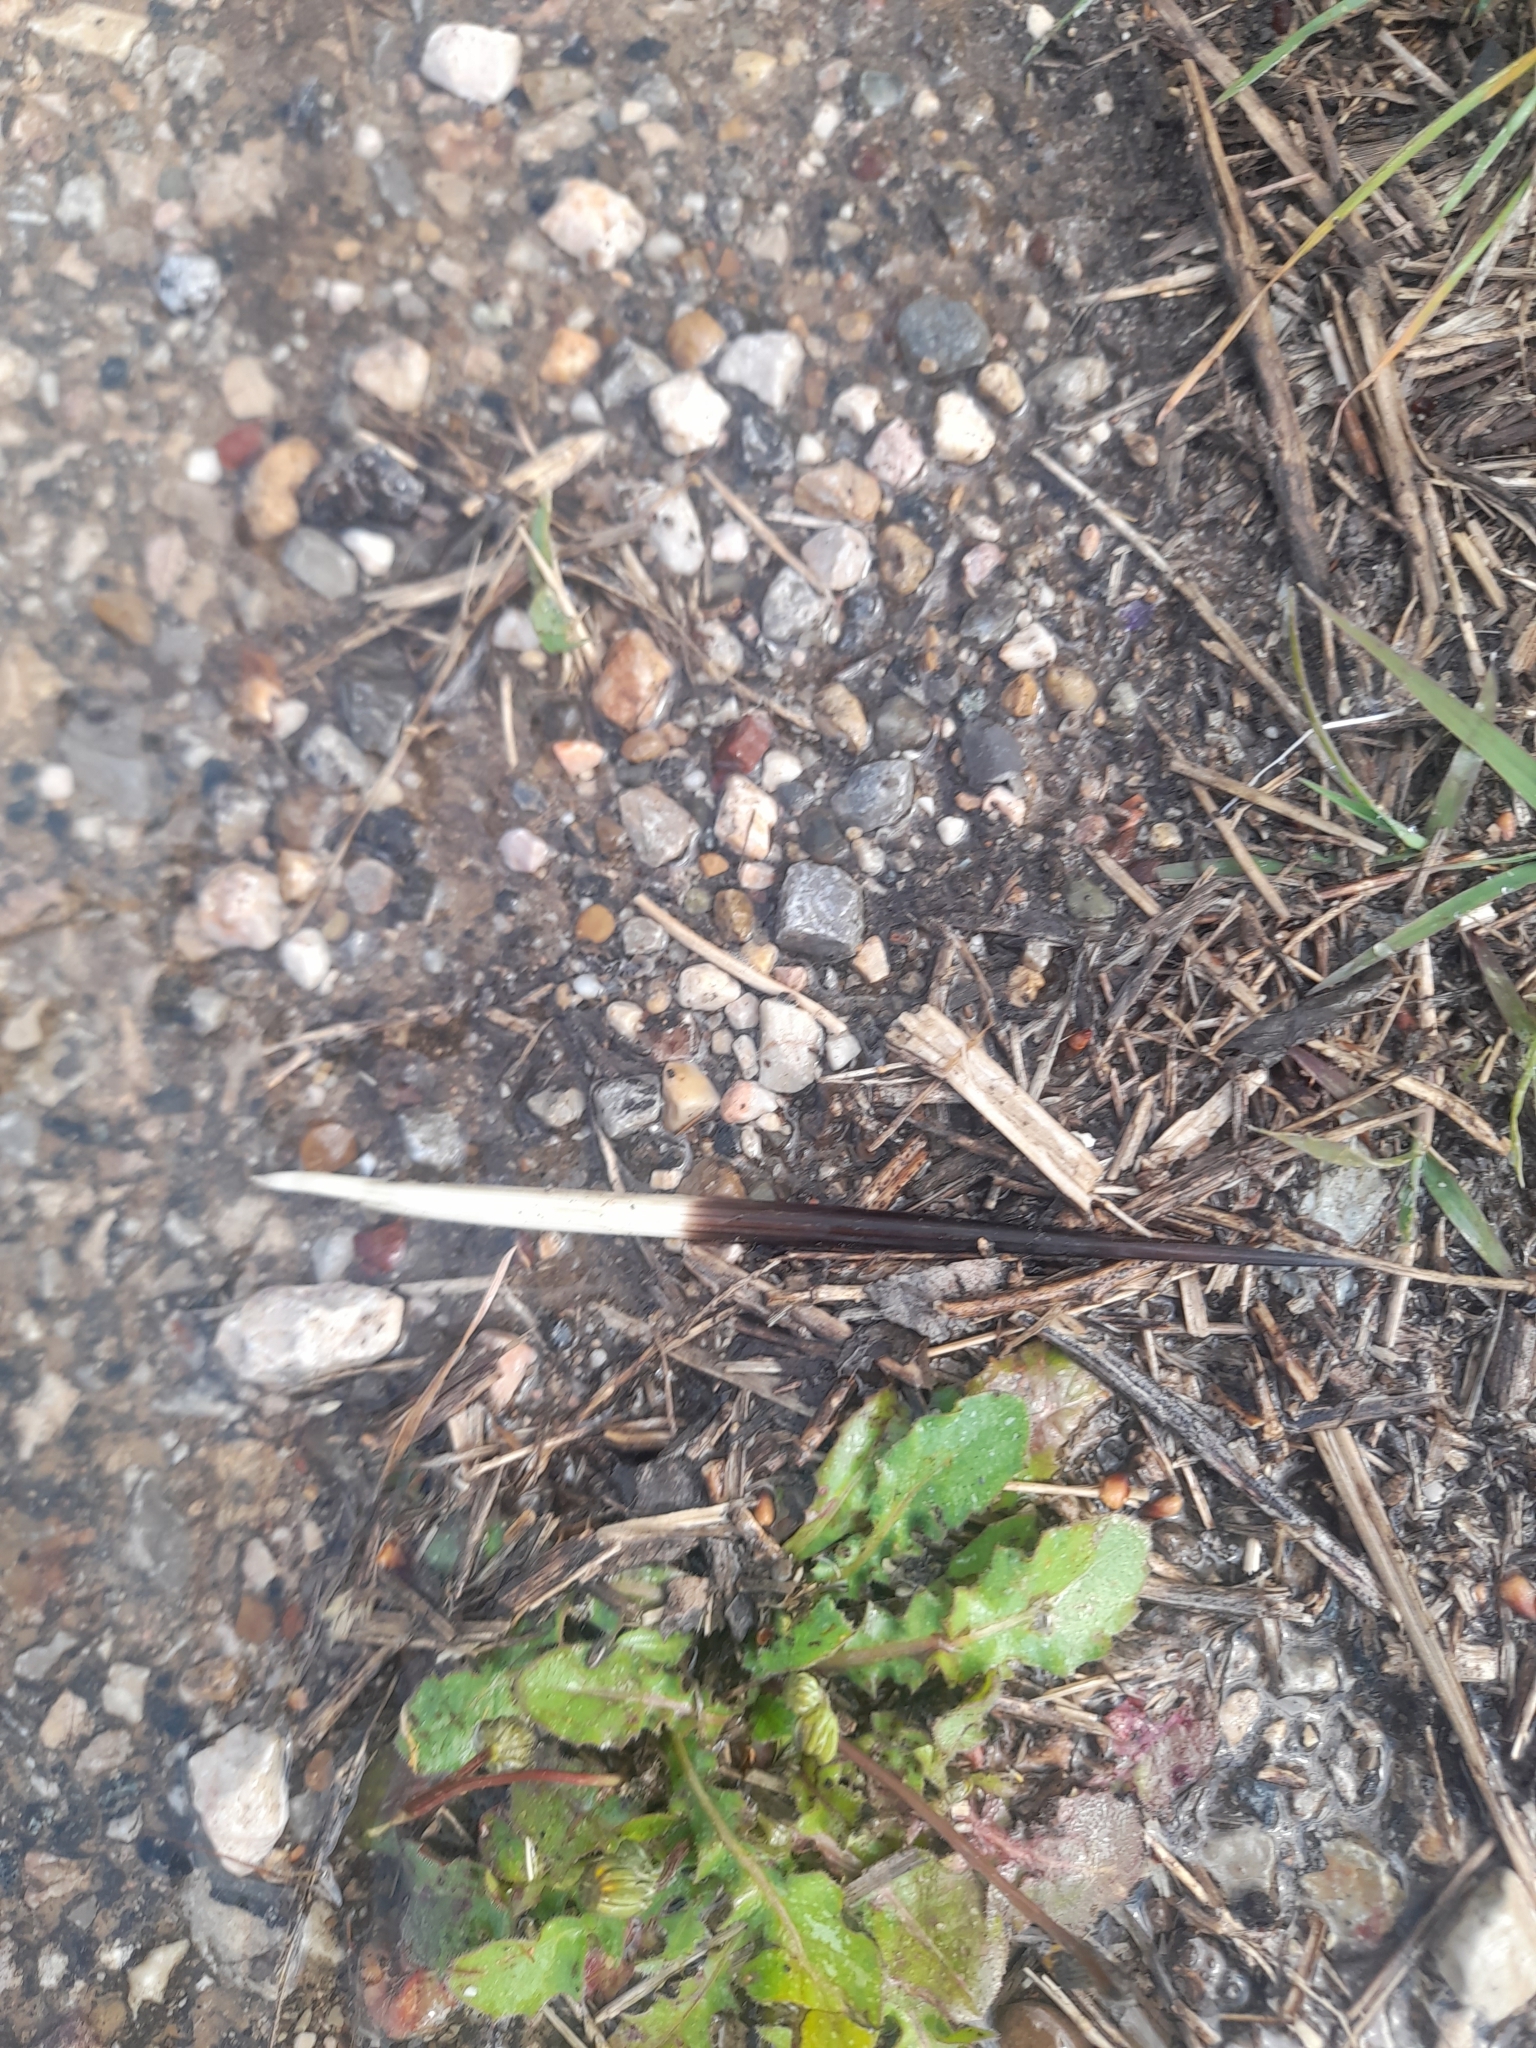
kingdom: Animalia
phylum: Chordata
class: Mammalia
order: Rodentia
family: Hystricidae
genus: Hystrix
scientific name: Hystrix cristata
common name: Crested porcupine
